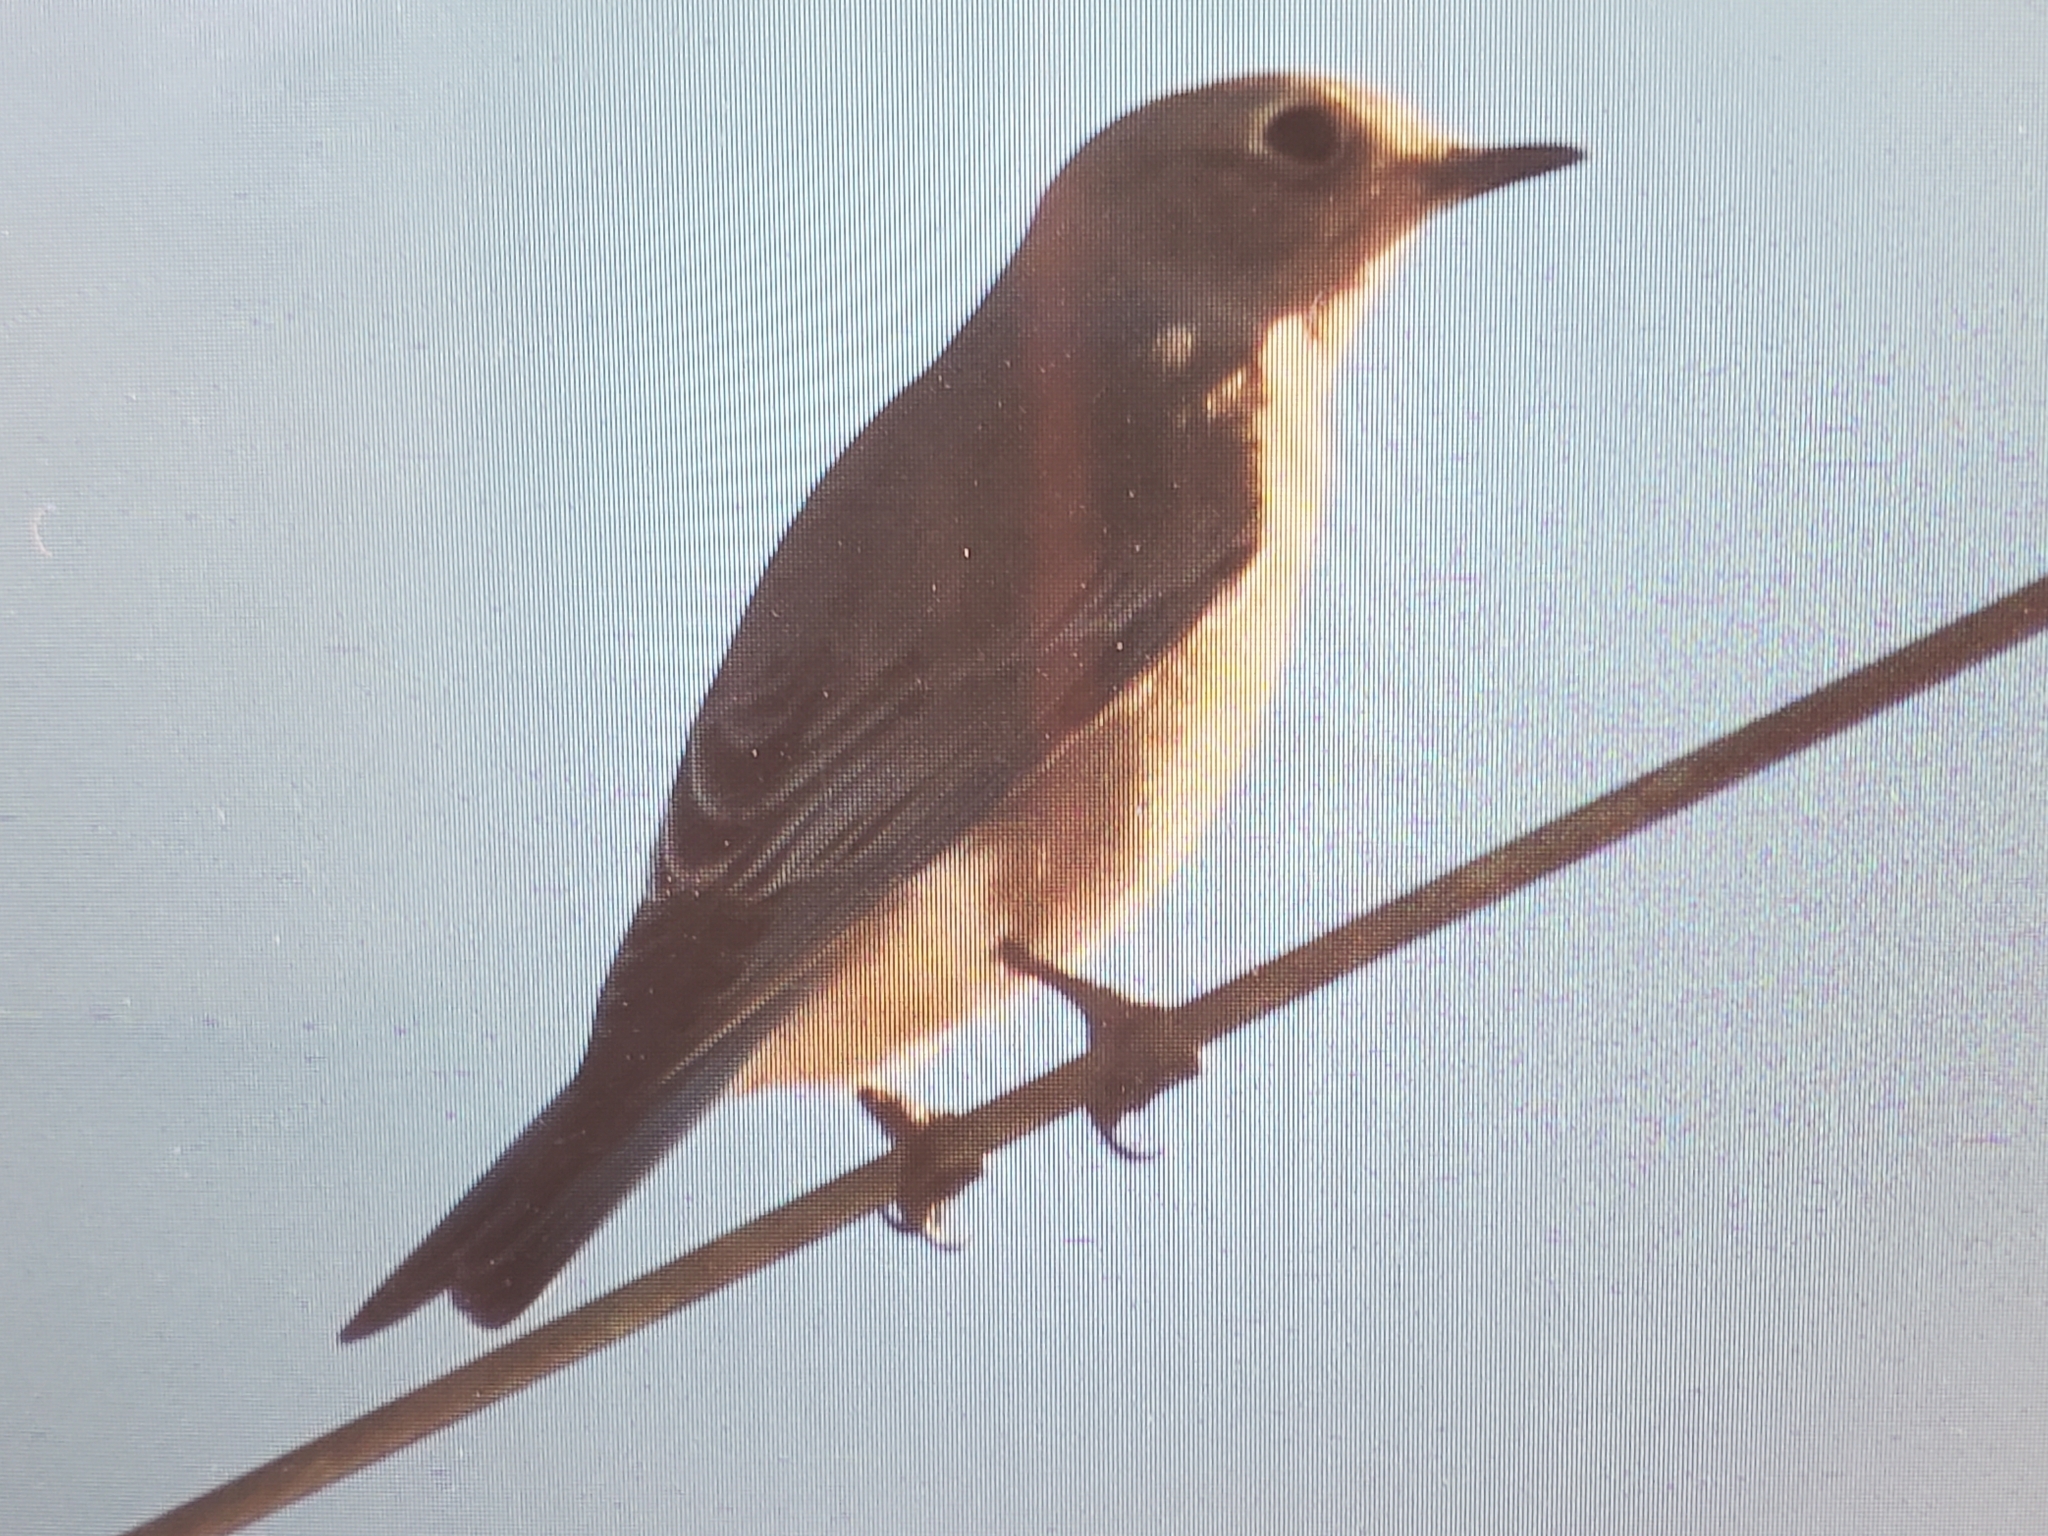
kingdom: Animalia
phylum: Chordata
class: Aves
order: Passeriformes
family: Turdidae
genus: Sialia
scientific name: Sialia currucoides
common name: Mountain bluebird
